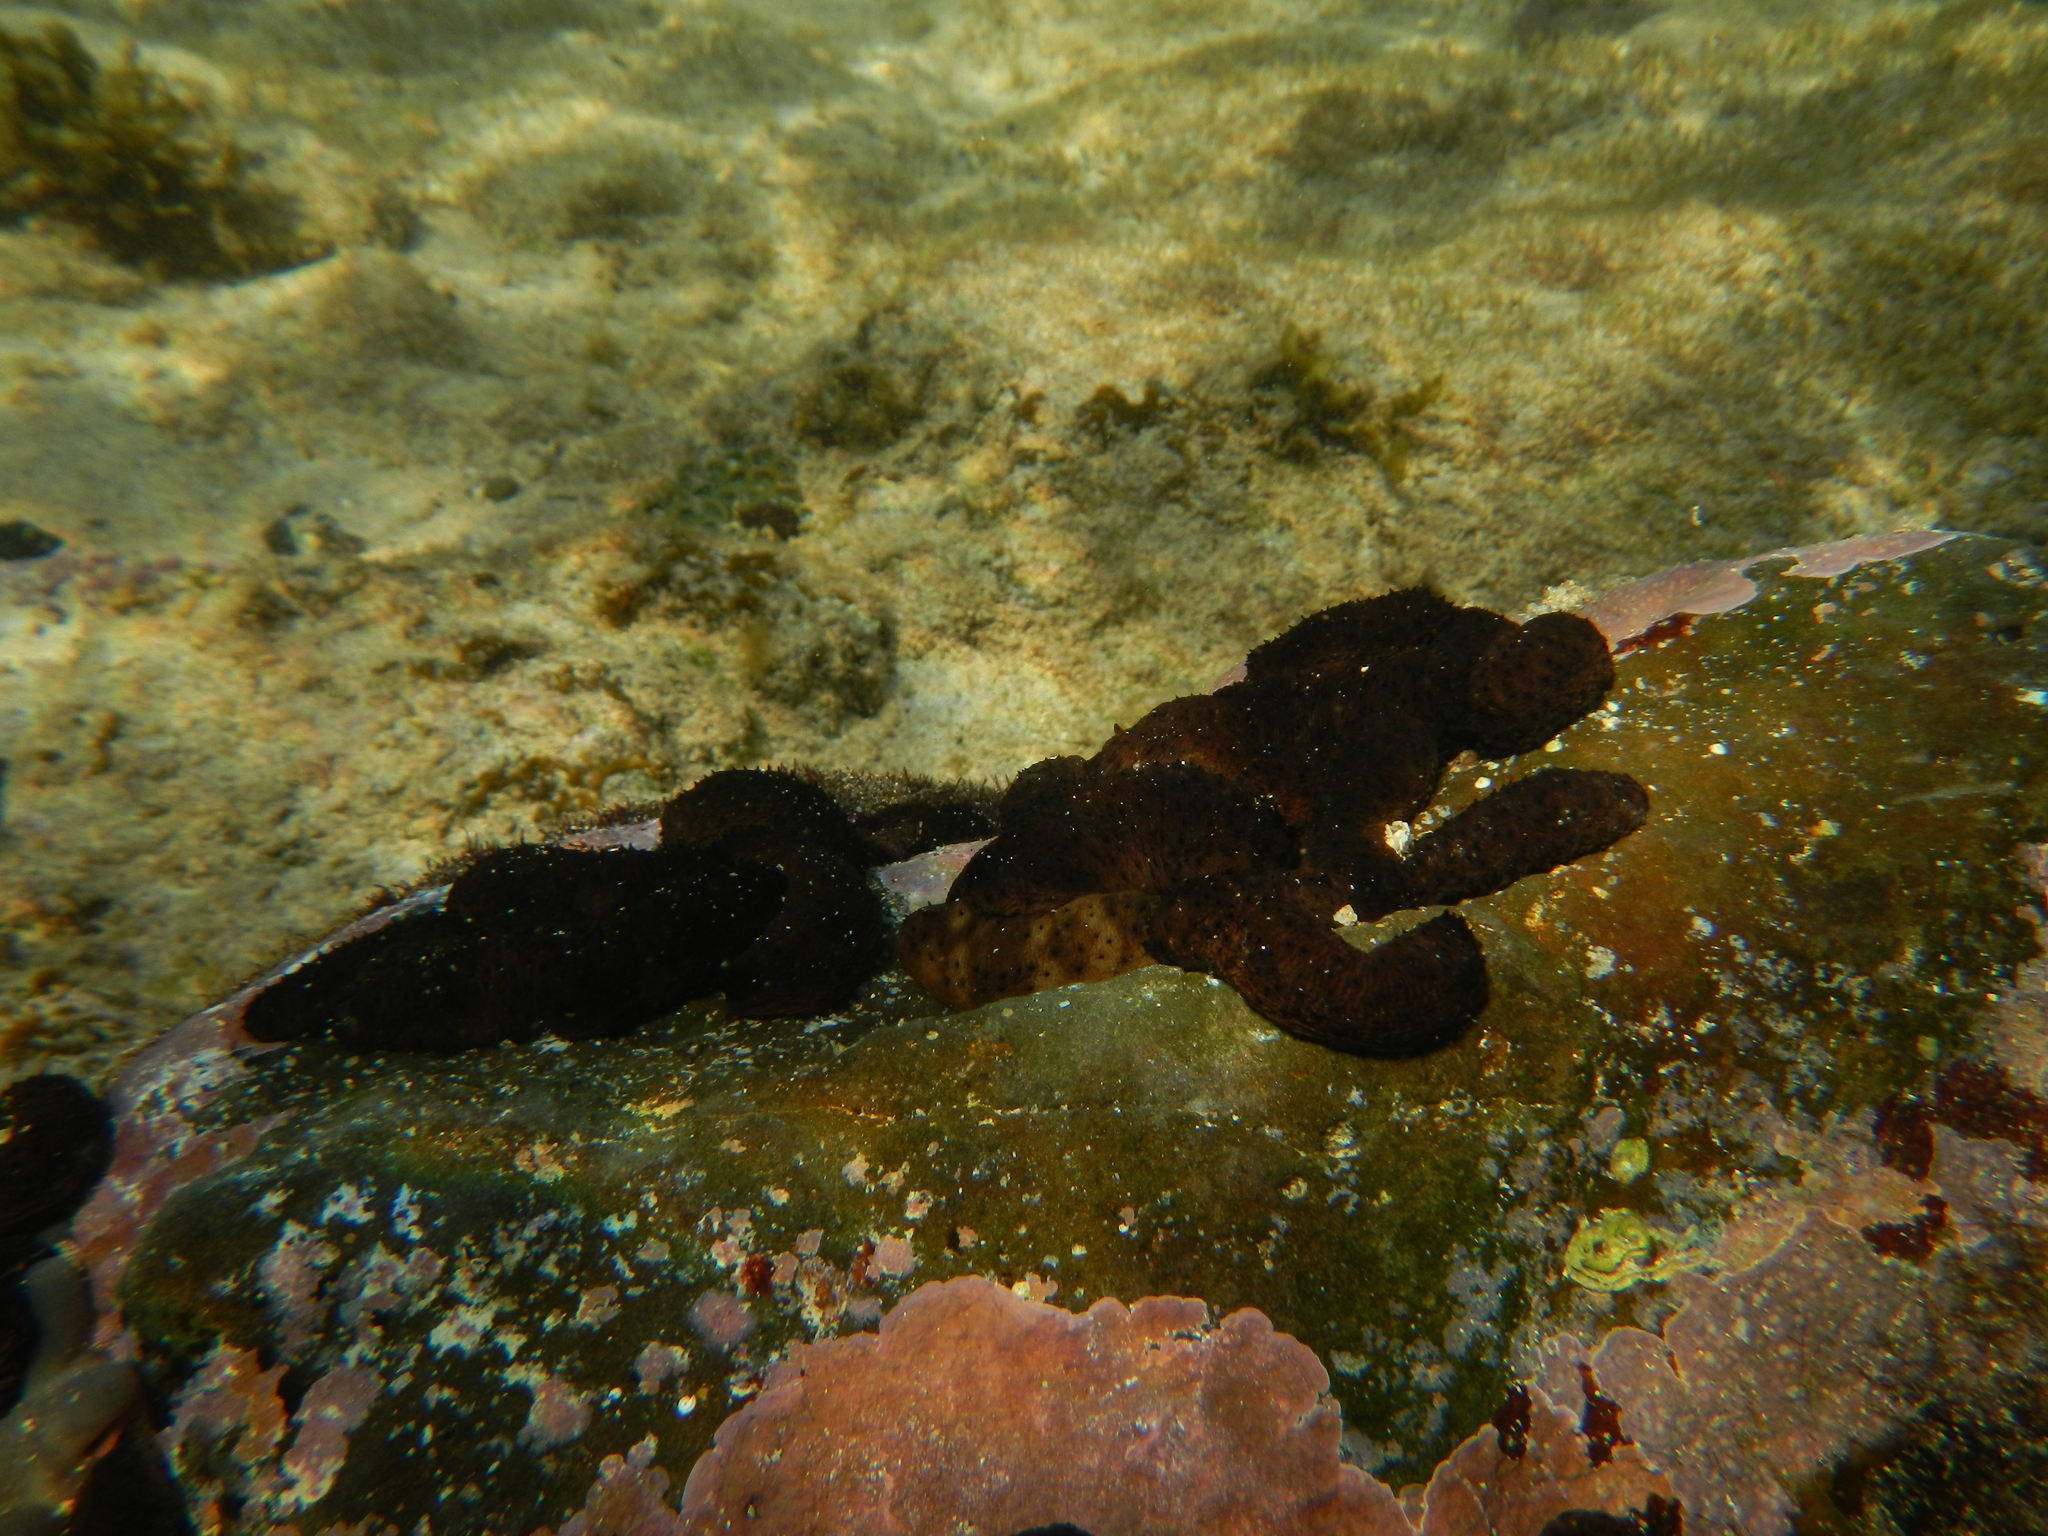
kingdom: Animalia
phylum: Echinodermata
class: Holothuroidea
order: Holothuriida
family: Holothuriidae
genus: Holothuria
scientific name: Holothuria difficilis
